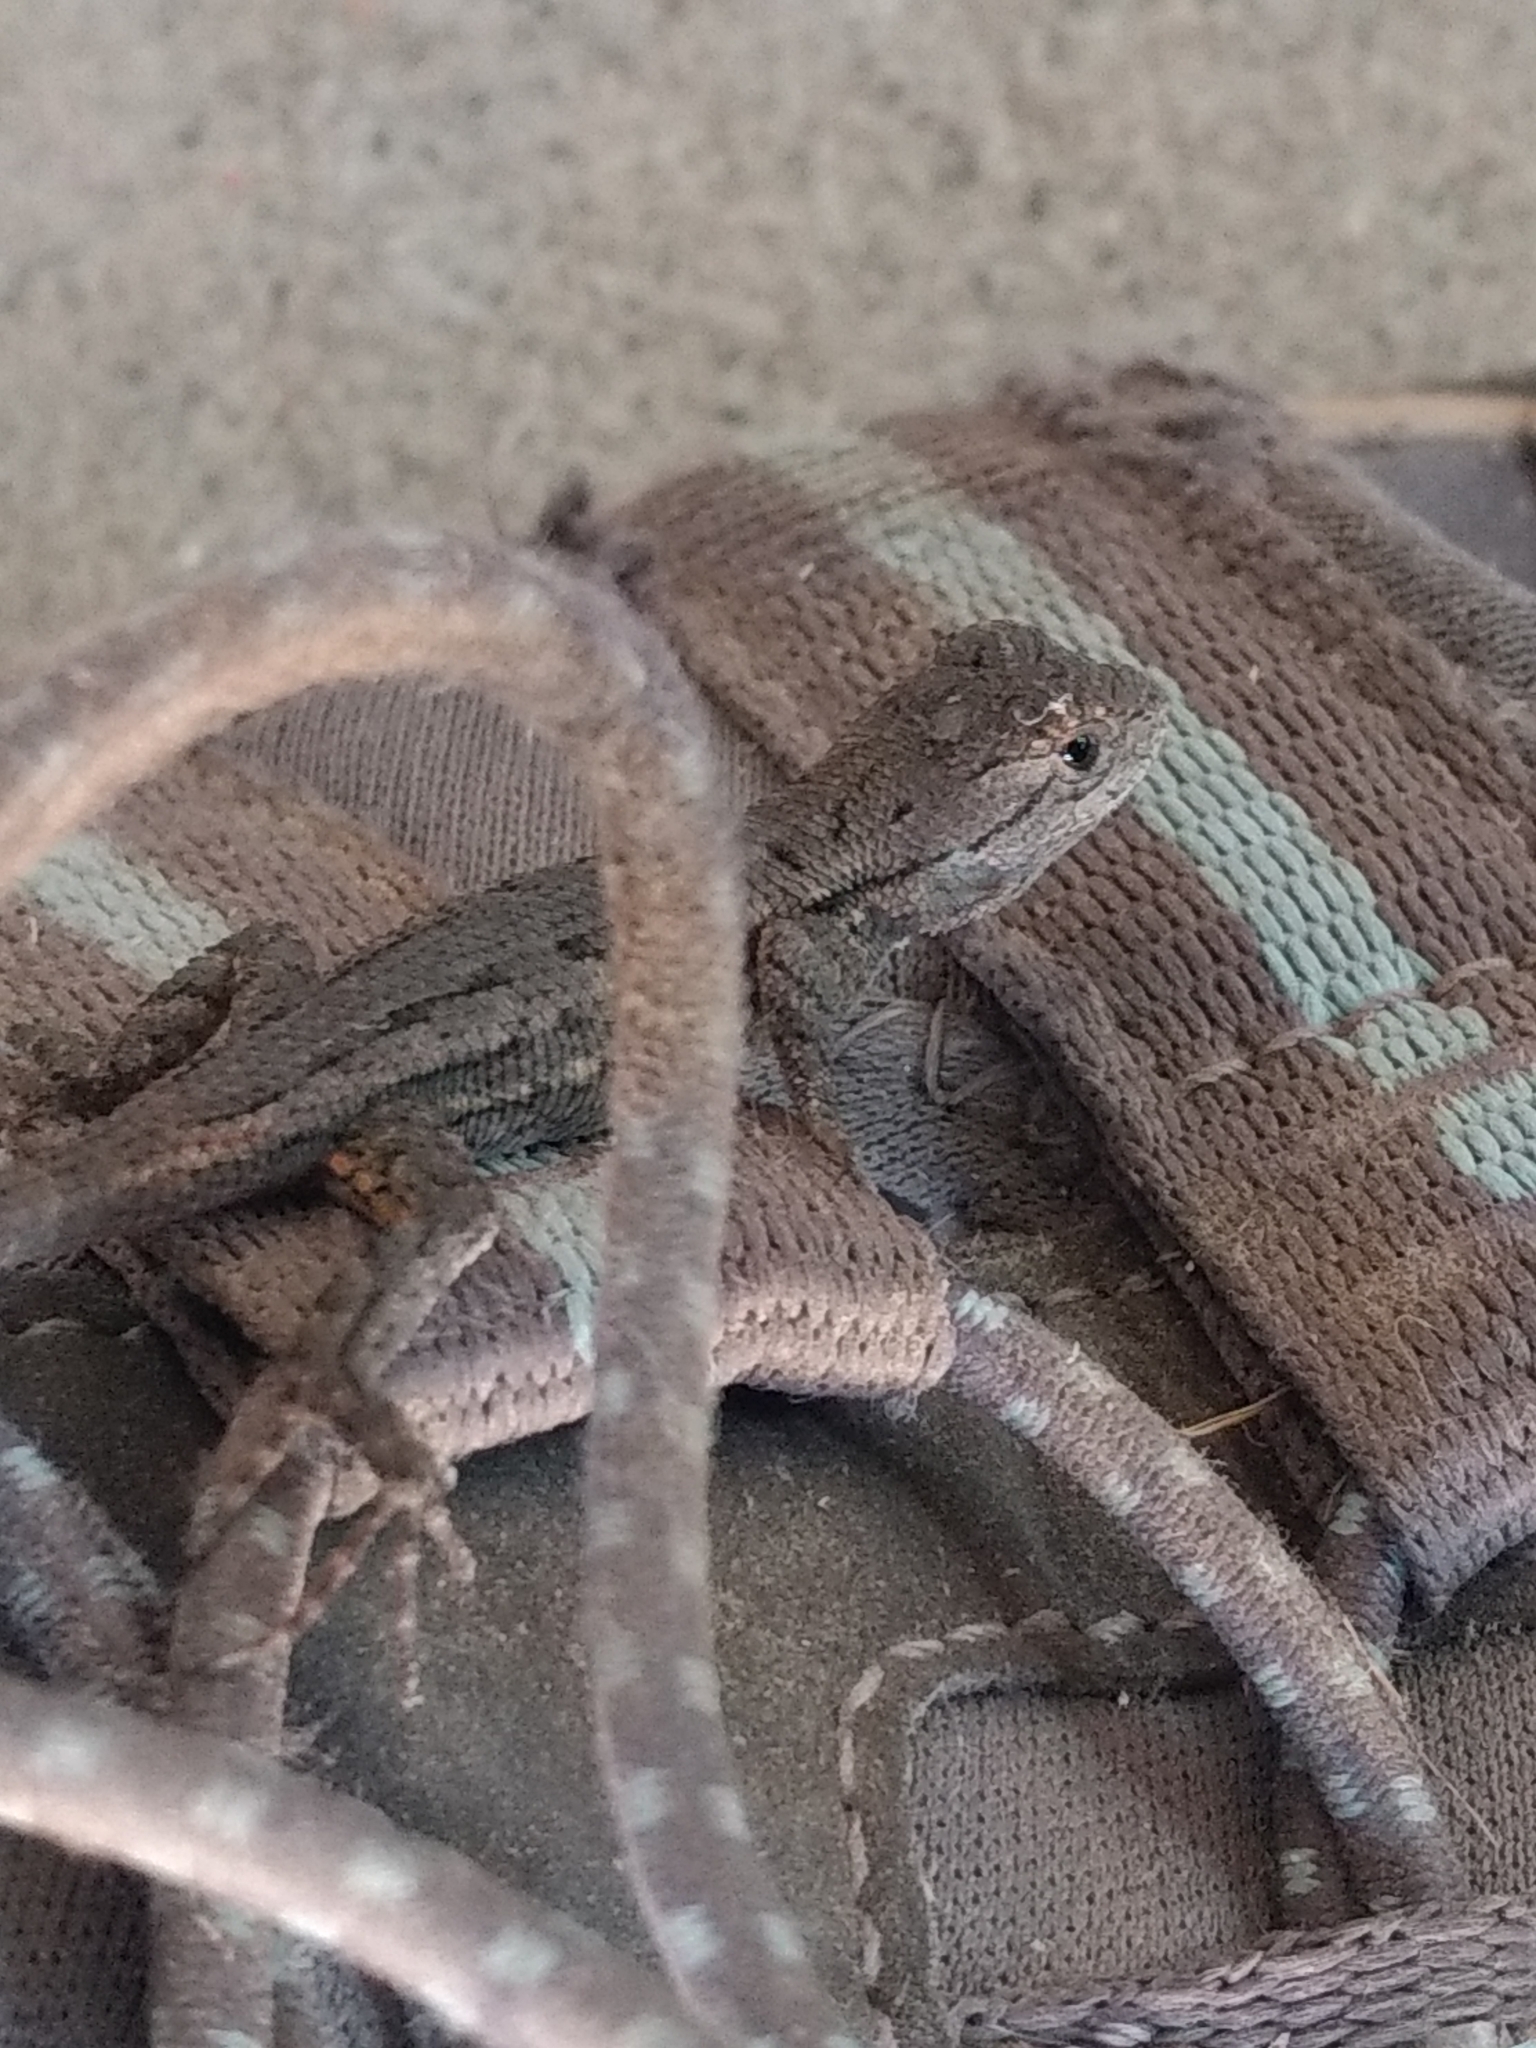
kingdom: Animalia
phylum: Chordata
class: Squamata
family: Phrynosomatidae
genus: Sceloporus
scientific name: Sceloporus occidentalis
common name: Western fence lizard
